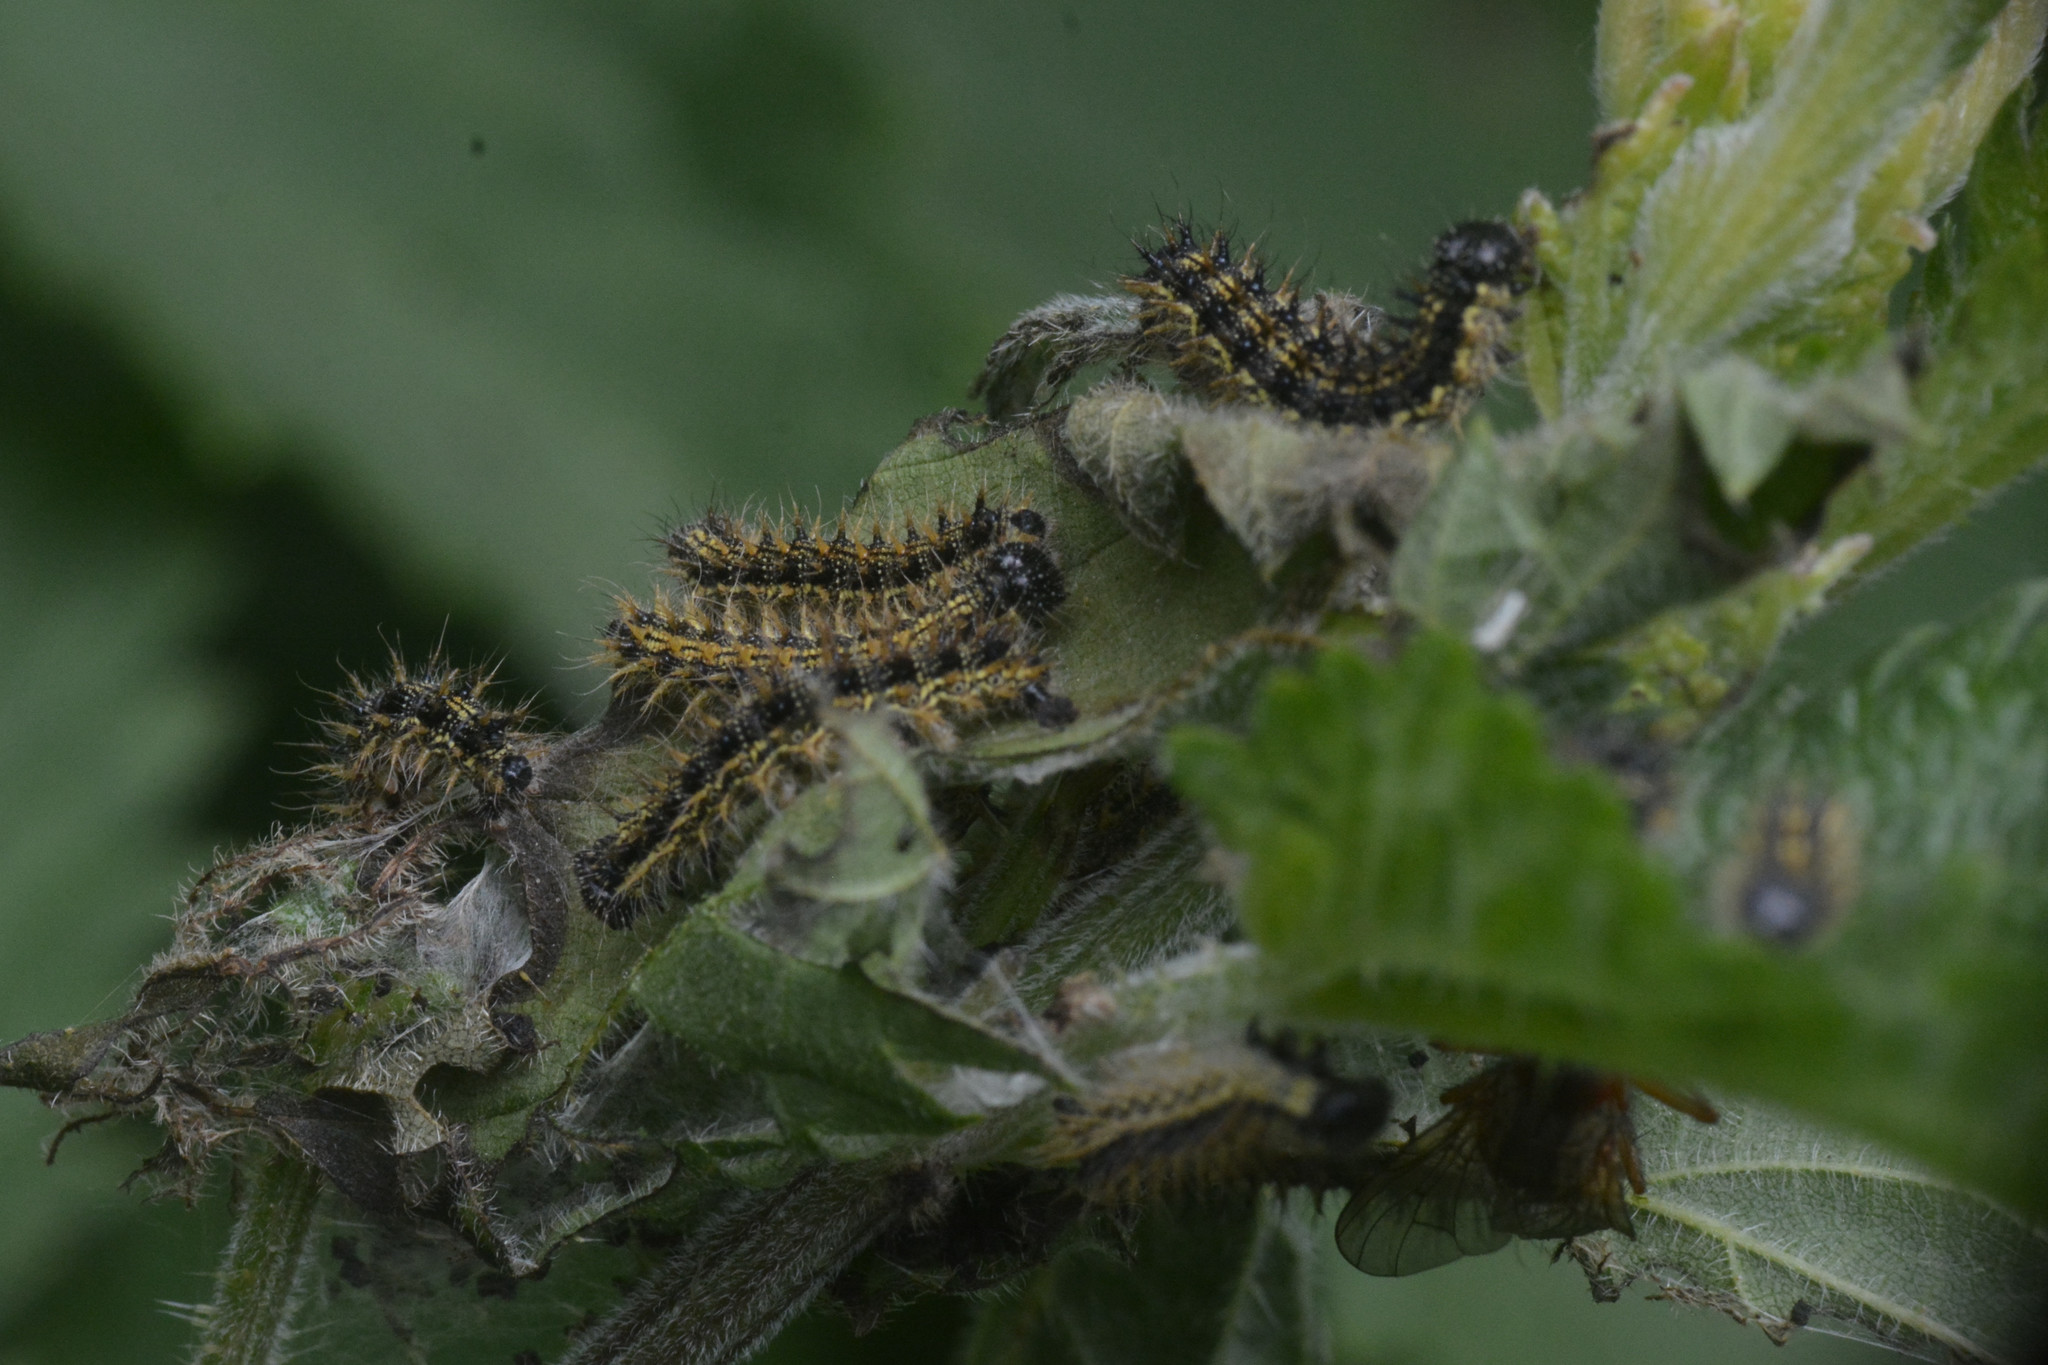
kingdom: Animalia
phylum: Arthropoda
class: Insecta
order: Lepidoptera
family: Nymphalidae
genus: Aglais
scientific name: Aglais urticae
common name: Small tortoiseshell
